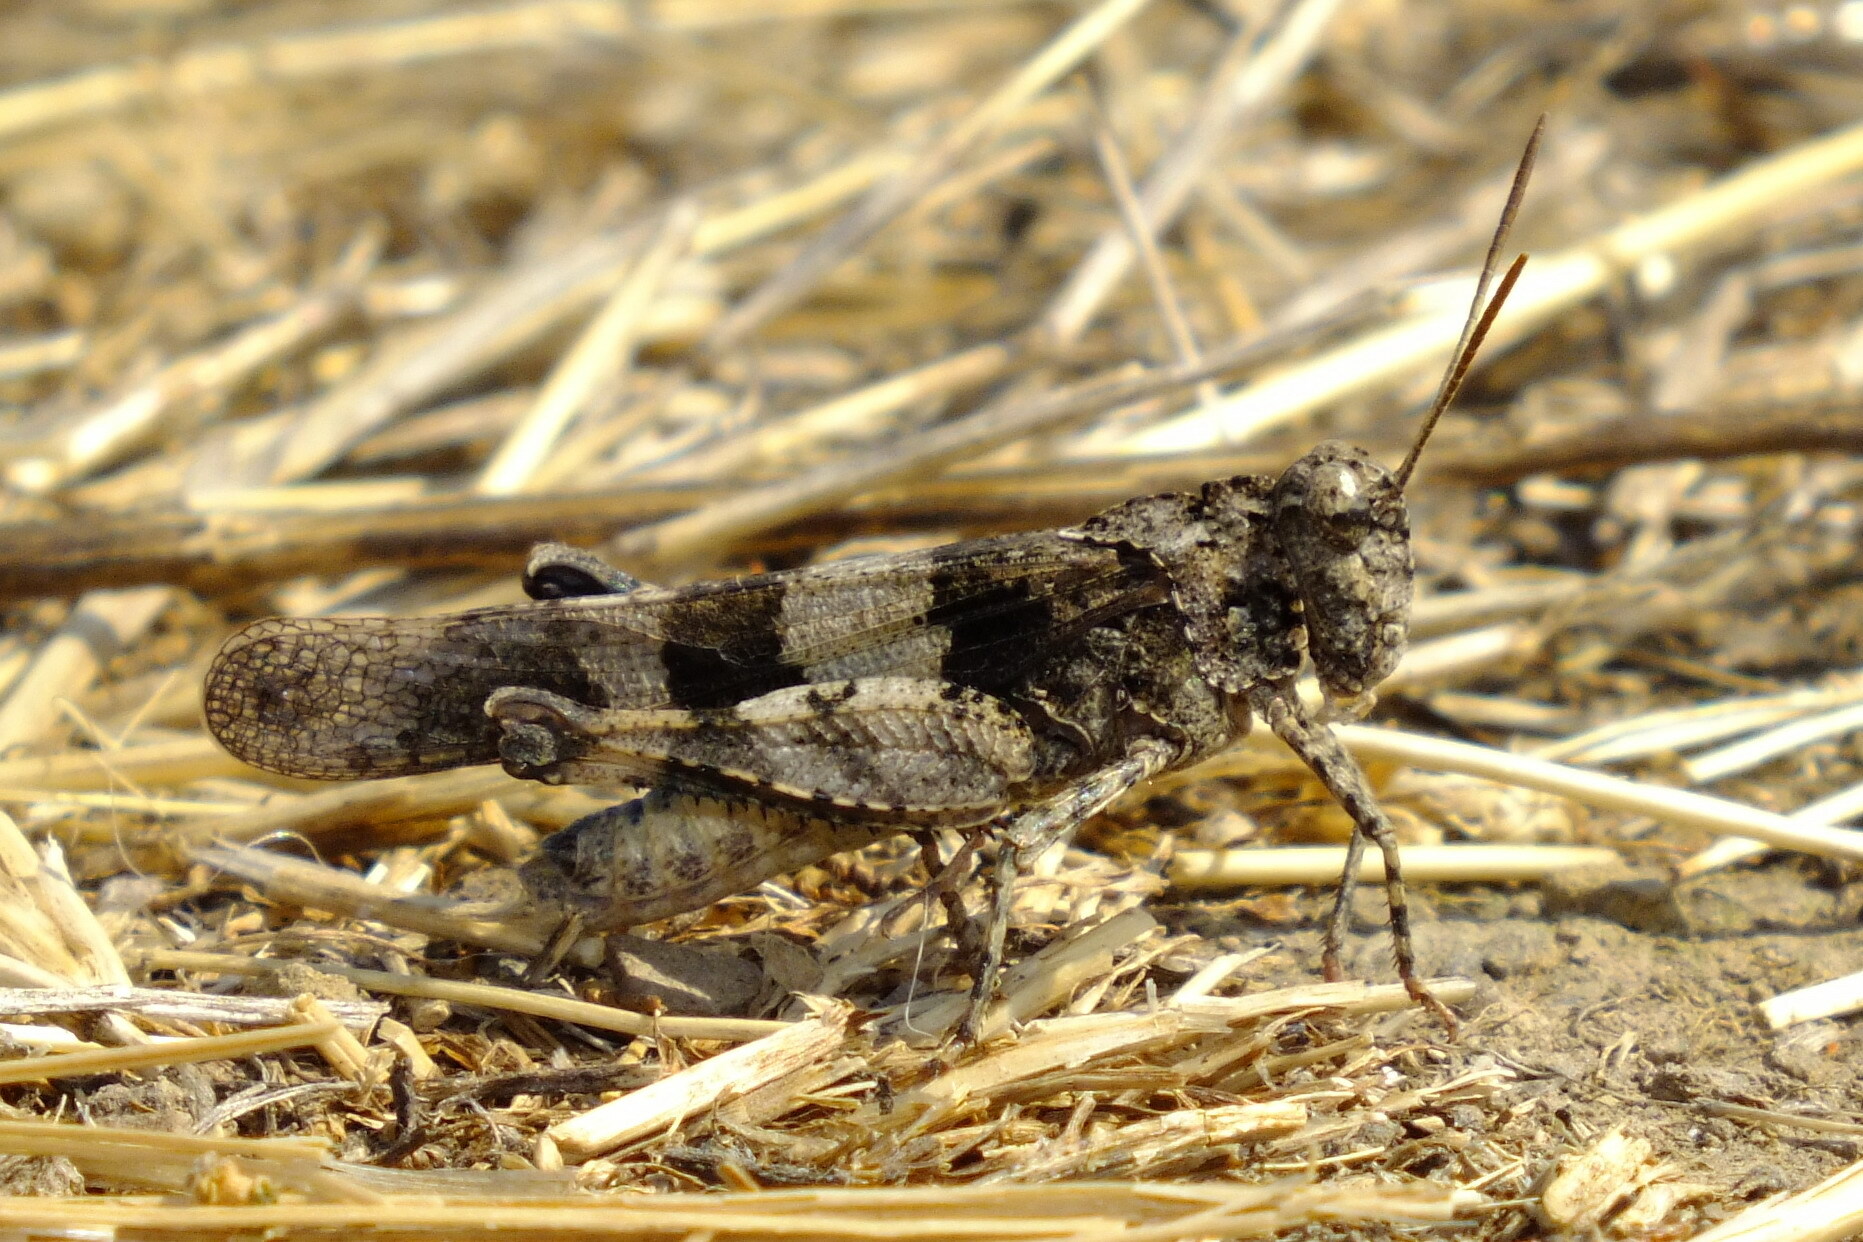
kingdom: Animalia
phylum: Arthropoda
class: Insecta
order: Orthoptera
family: Acrididae
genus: Oedipoda
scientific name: Oedipoda caerulescens
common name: Blue-winged grasshopper
